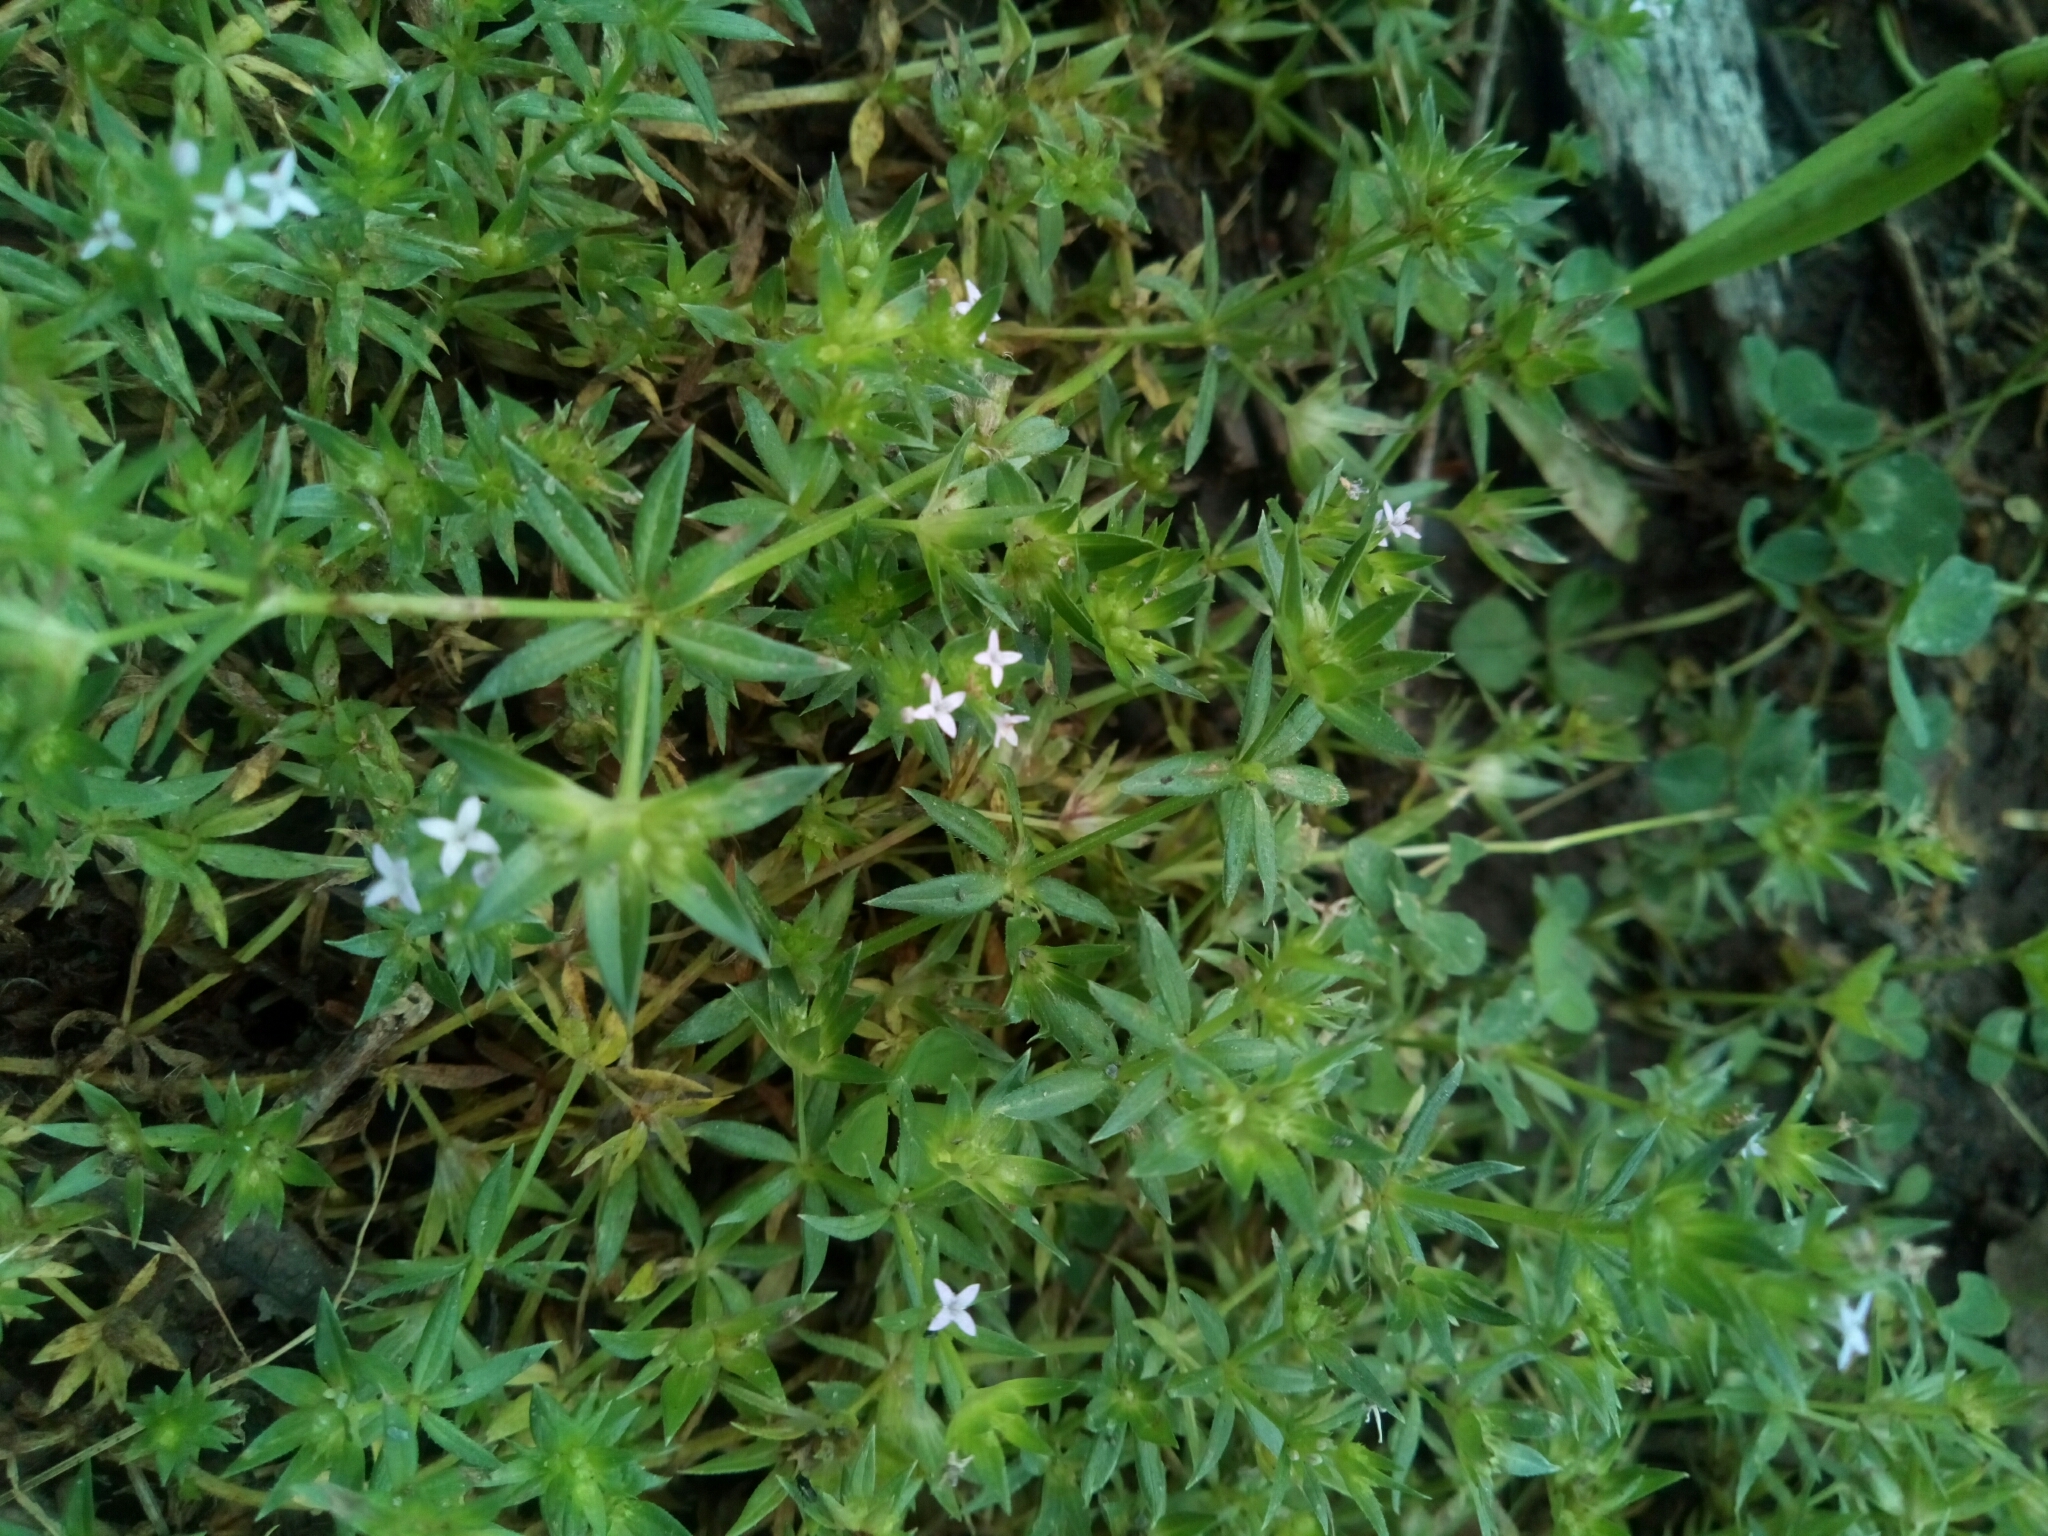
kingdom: Plantae
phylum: Tracheophyta
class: Magnoliopsida
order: Gentianales
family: Rubiaceae
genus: Sherardia
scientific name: Sherardia arvensis
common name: Field madder
